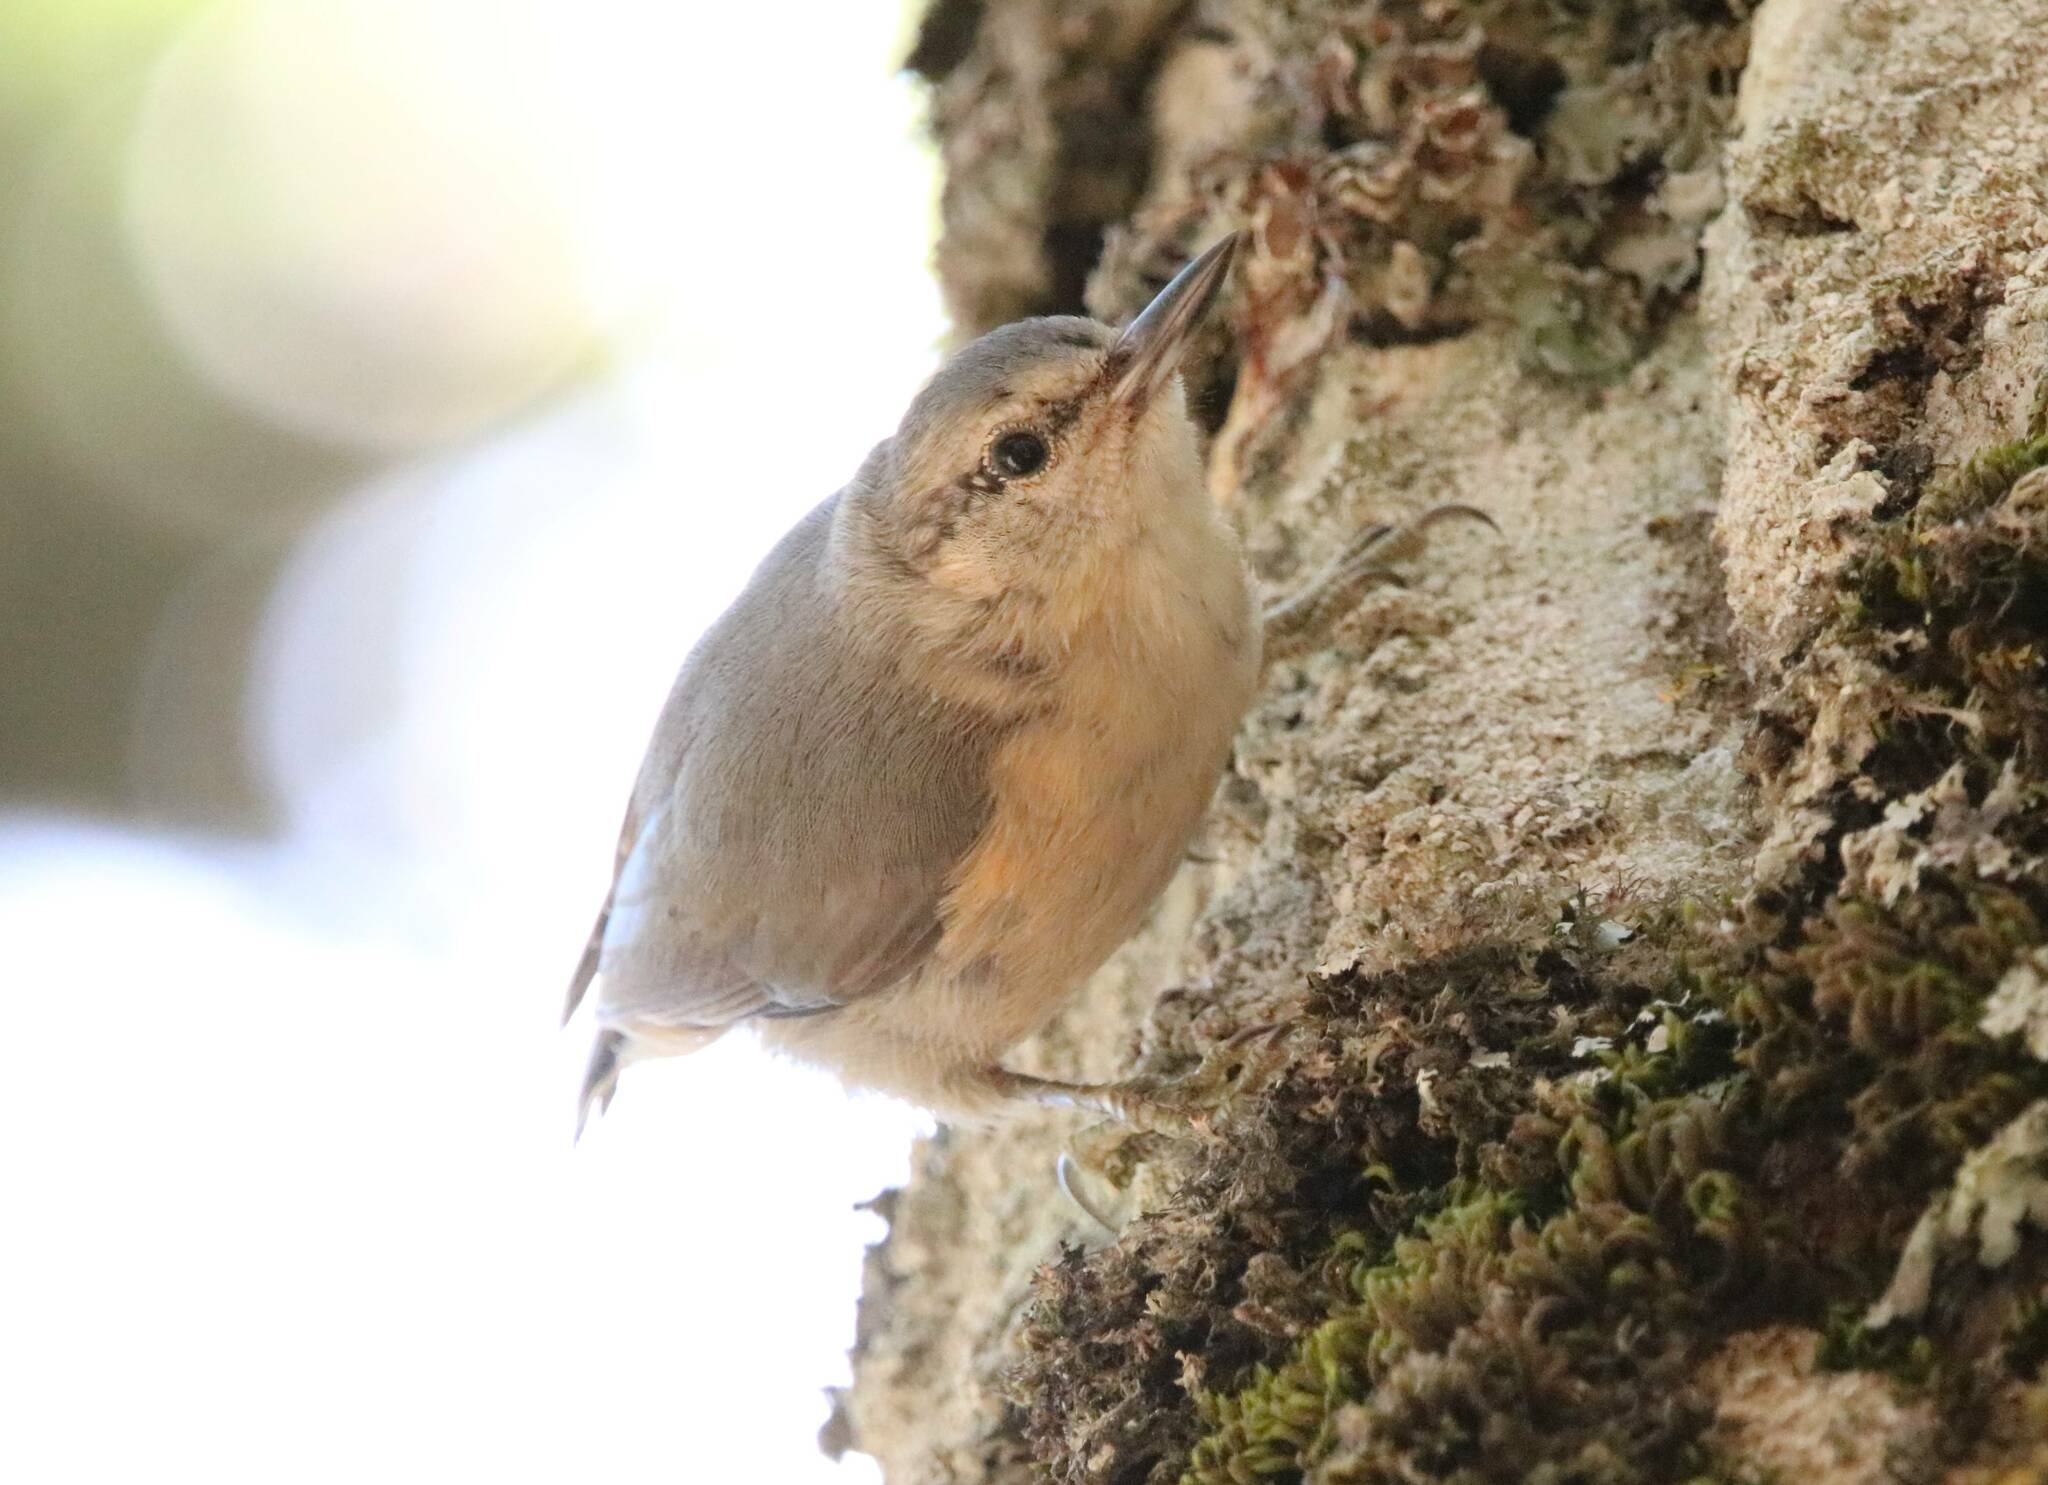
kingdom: Animalia
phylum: Chordata
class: Aves
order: Passeriformes
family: Sittidae
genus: Sitta
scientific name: Sitta ledanti
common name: Algerian nuthatch
